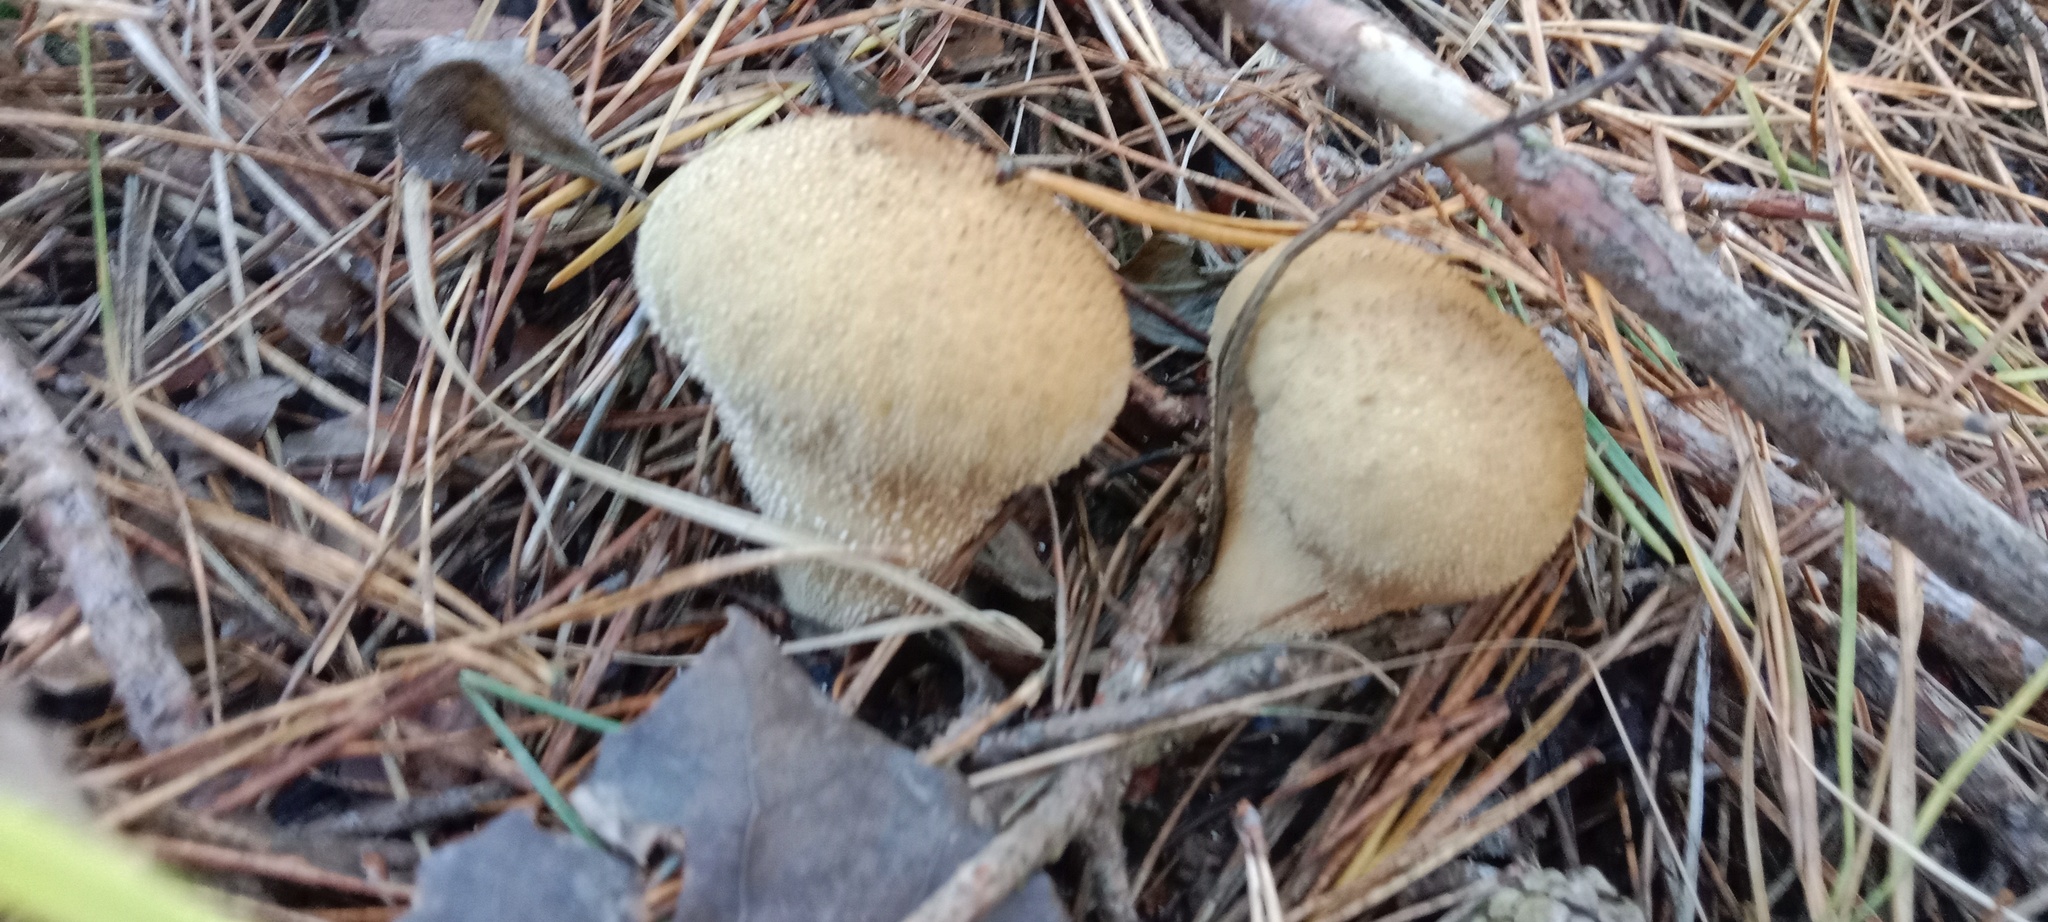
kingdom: Fungi
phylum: Basidiomycota
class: Agaricomycetes
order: Agaricales
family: Lycoperdaceae
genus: Lycoperdon
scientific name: Lycoperdon perlatum
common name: Common puffball
